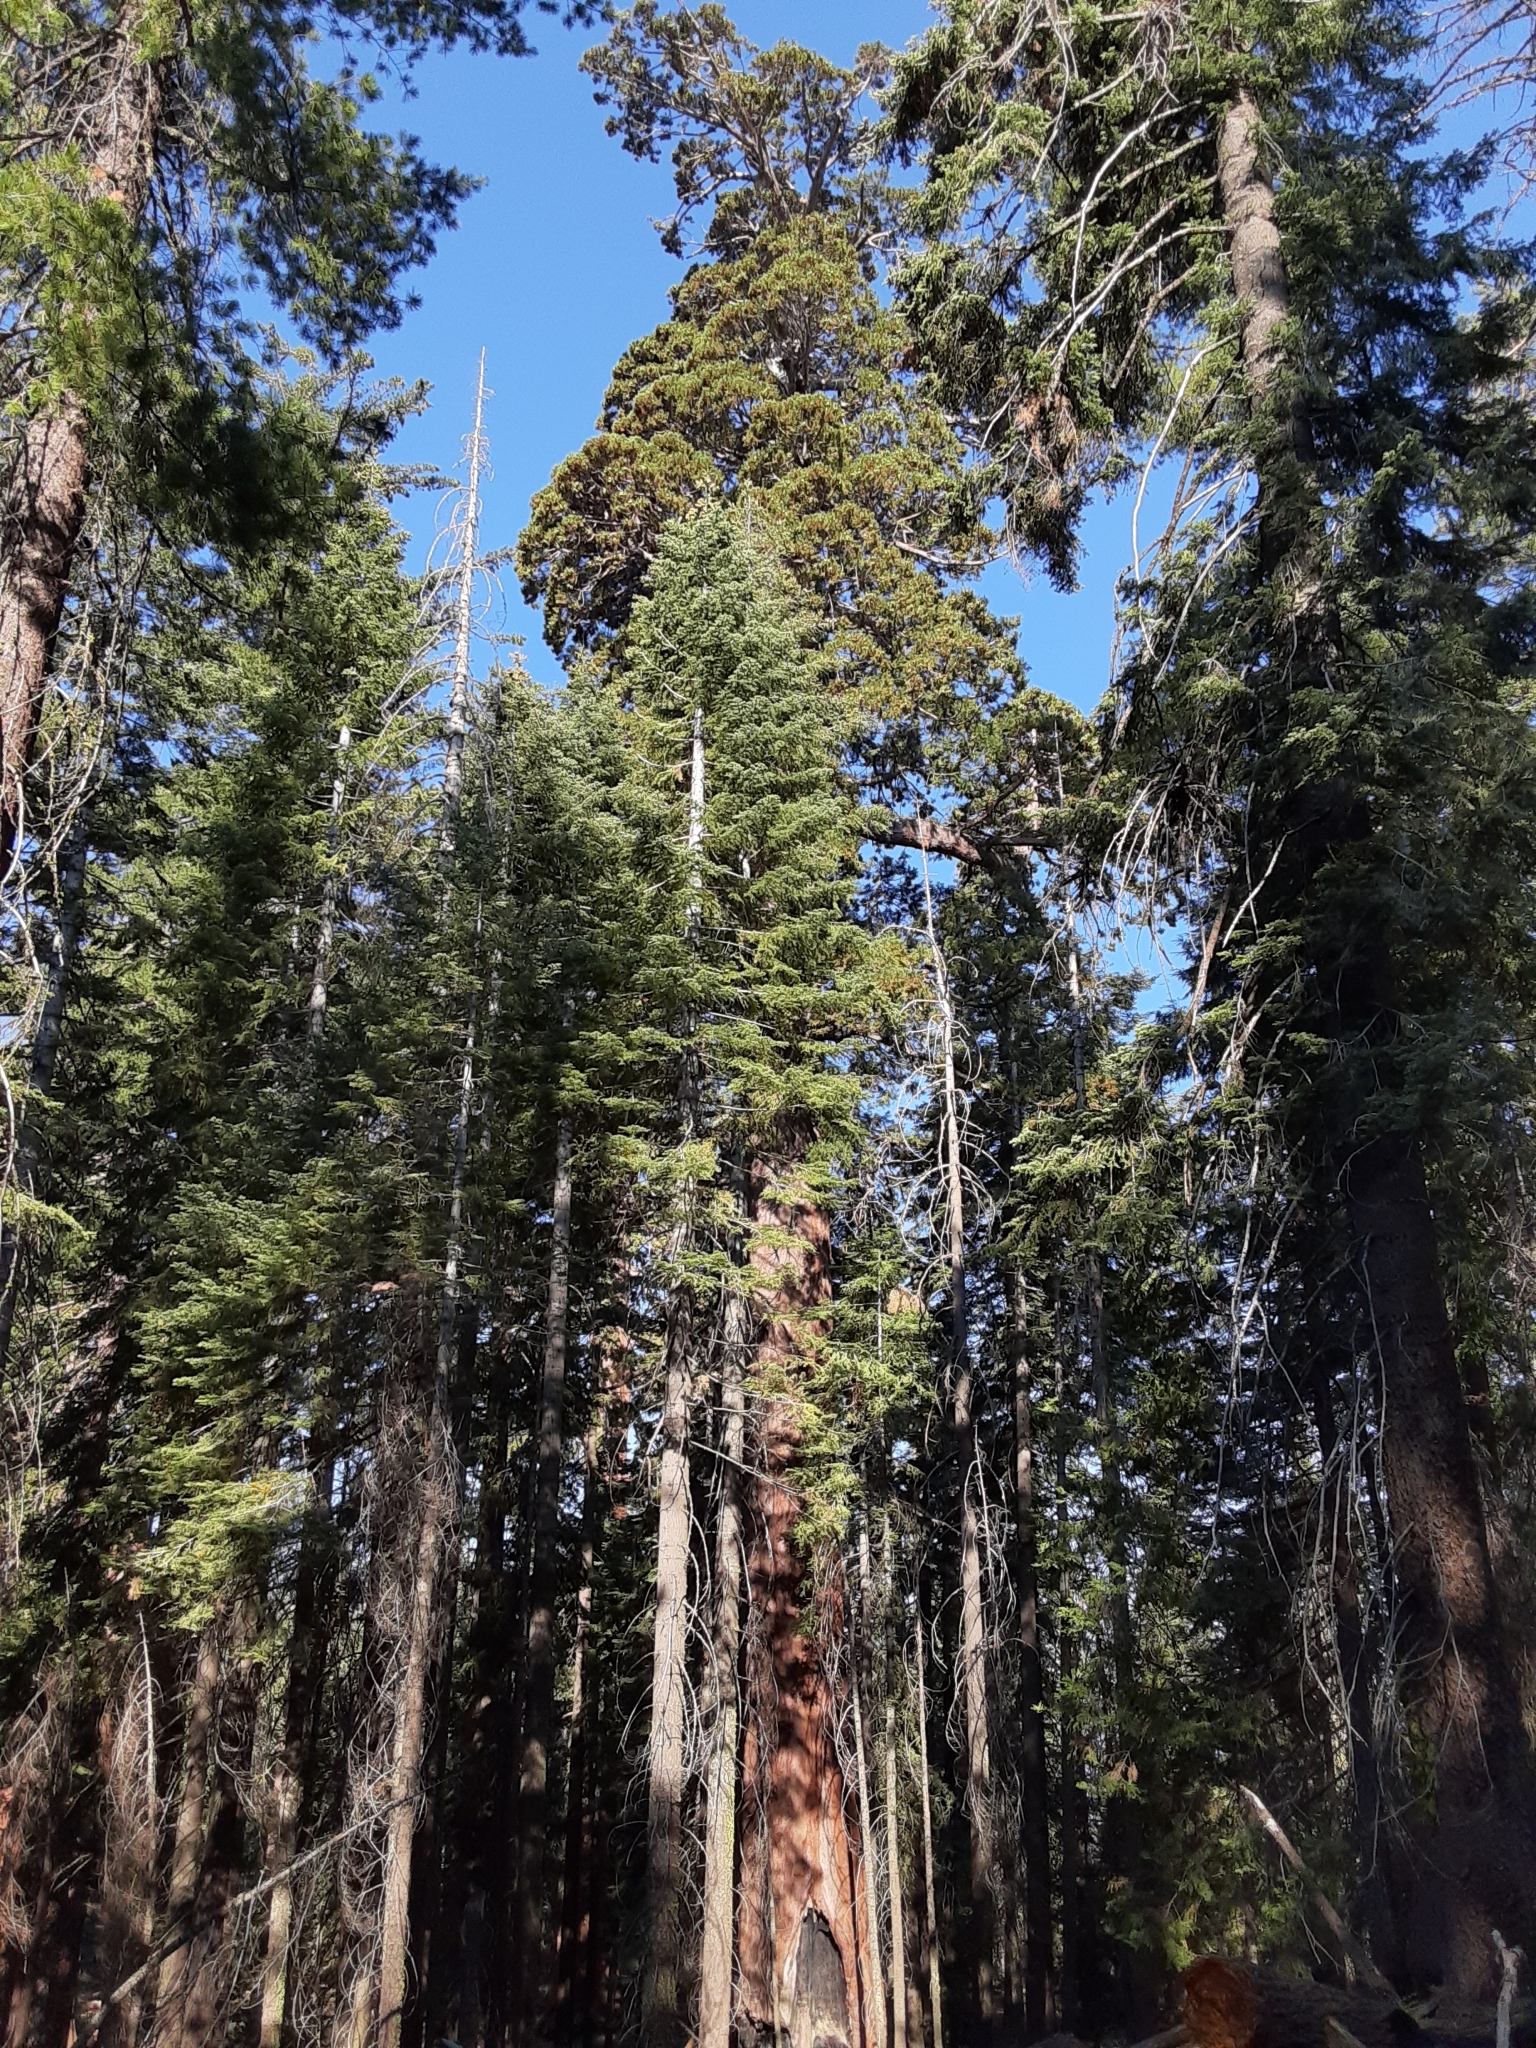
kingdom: Plantae
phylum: Tracheophyta
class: Pinopsida
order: Pinales
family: Cupressaceae
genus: Sequoiadendron
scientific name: Sequoiadendron giganteum
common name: Wellingtonia
